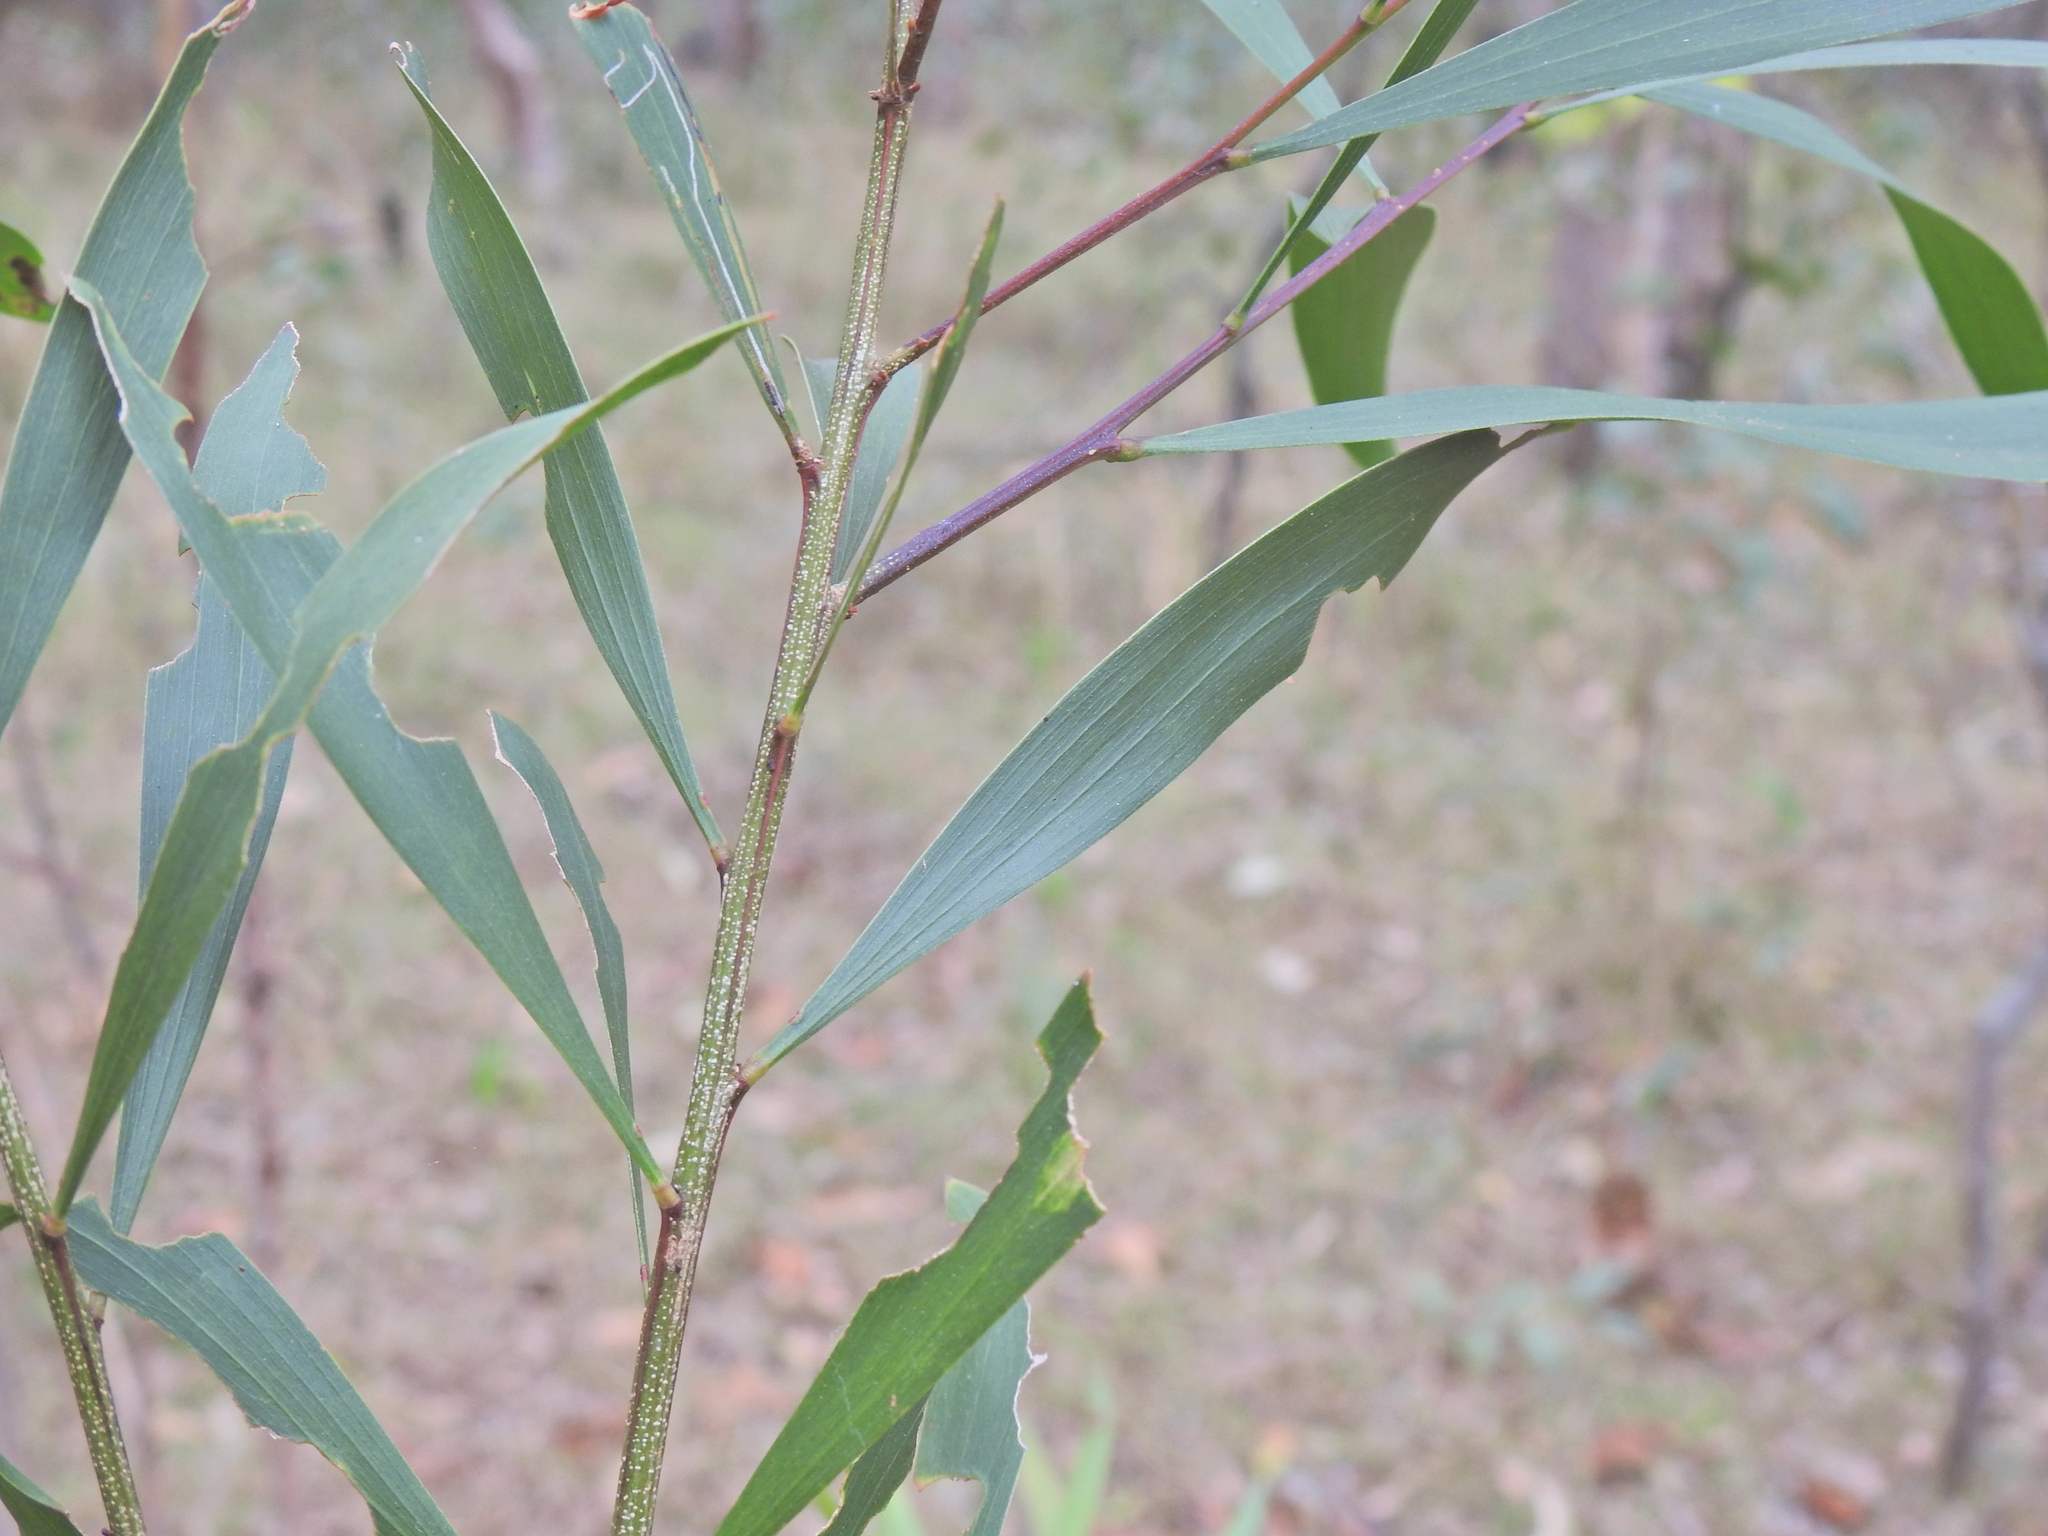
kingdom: Plantae
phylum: Tracheophyta
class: Magnoliopsida
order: Fabales
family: Fabaceae
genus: Acacia
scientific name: Acacia maidenii
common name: Maiden's wattle
